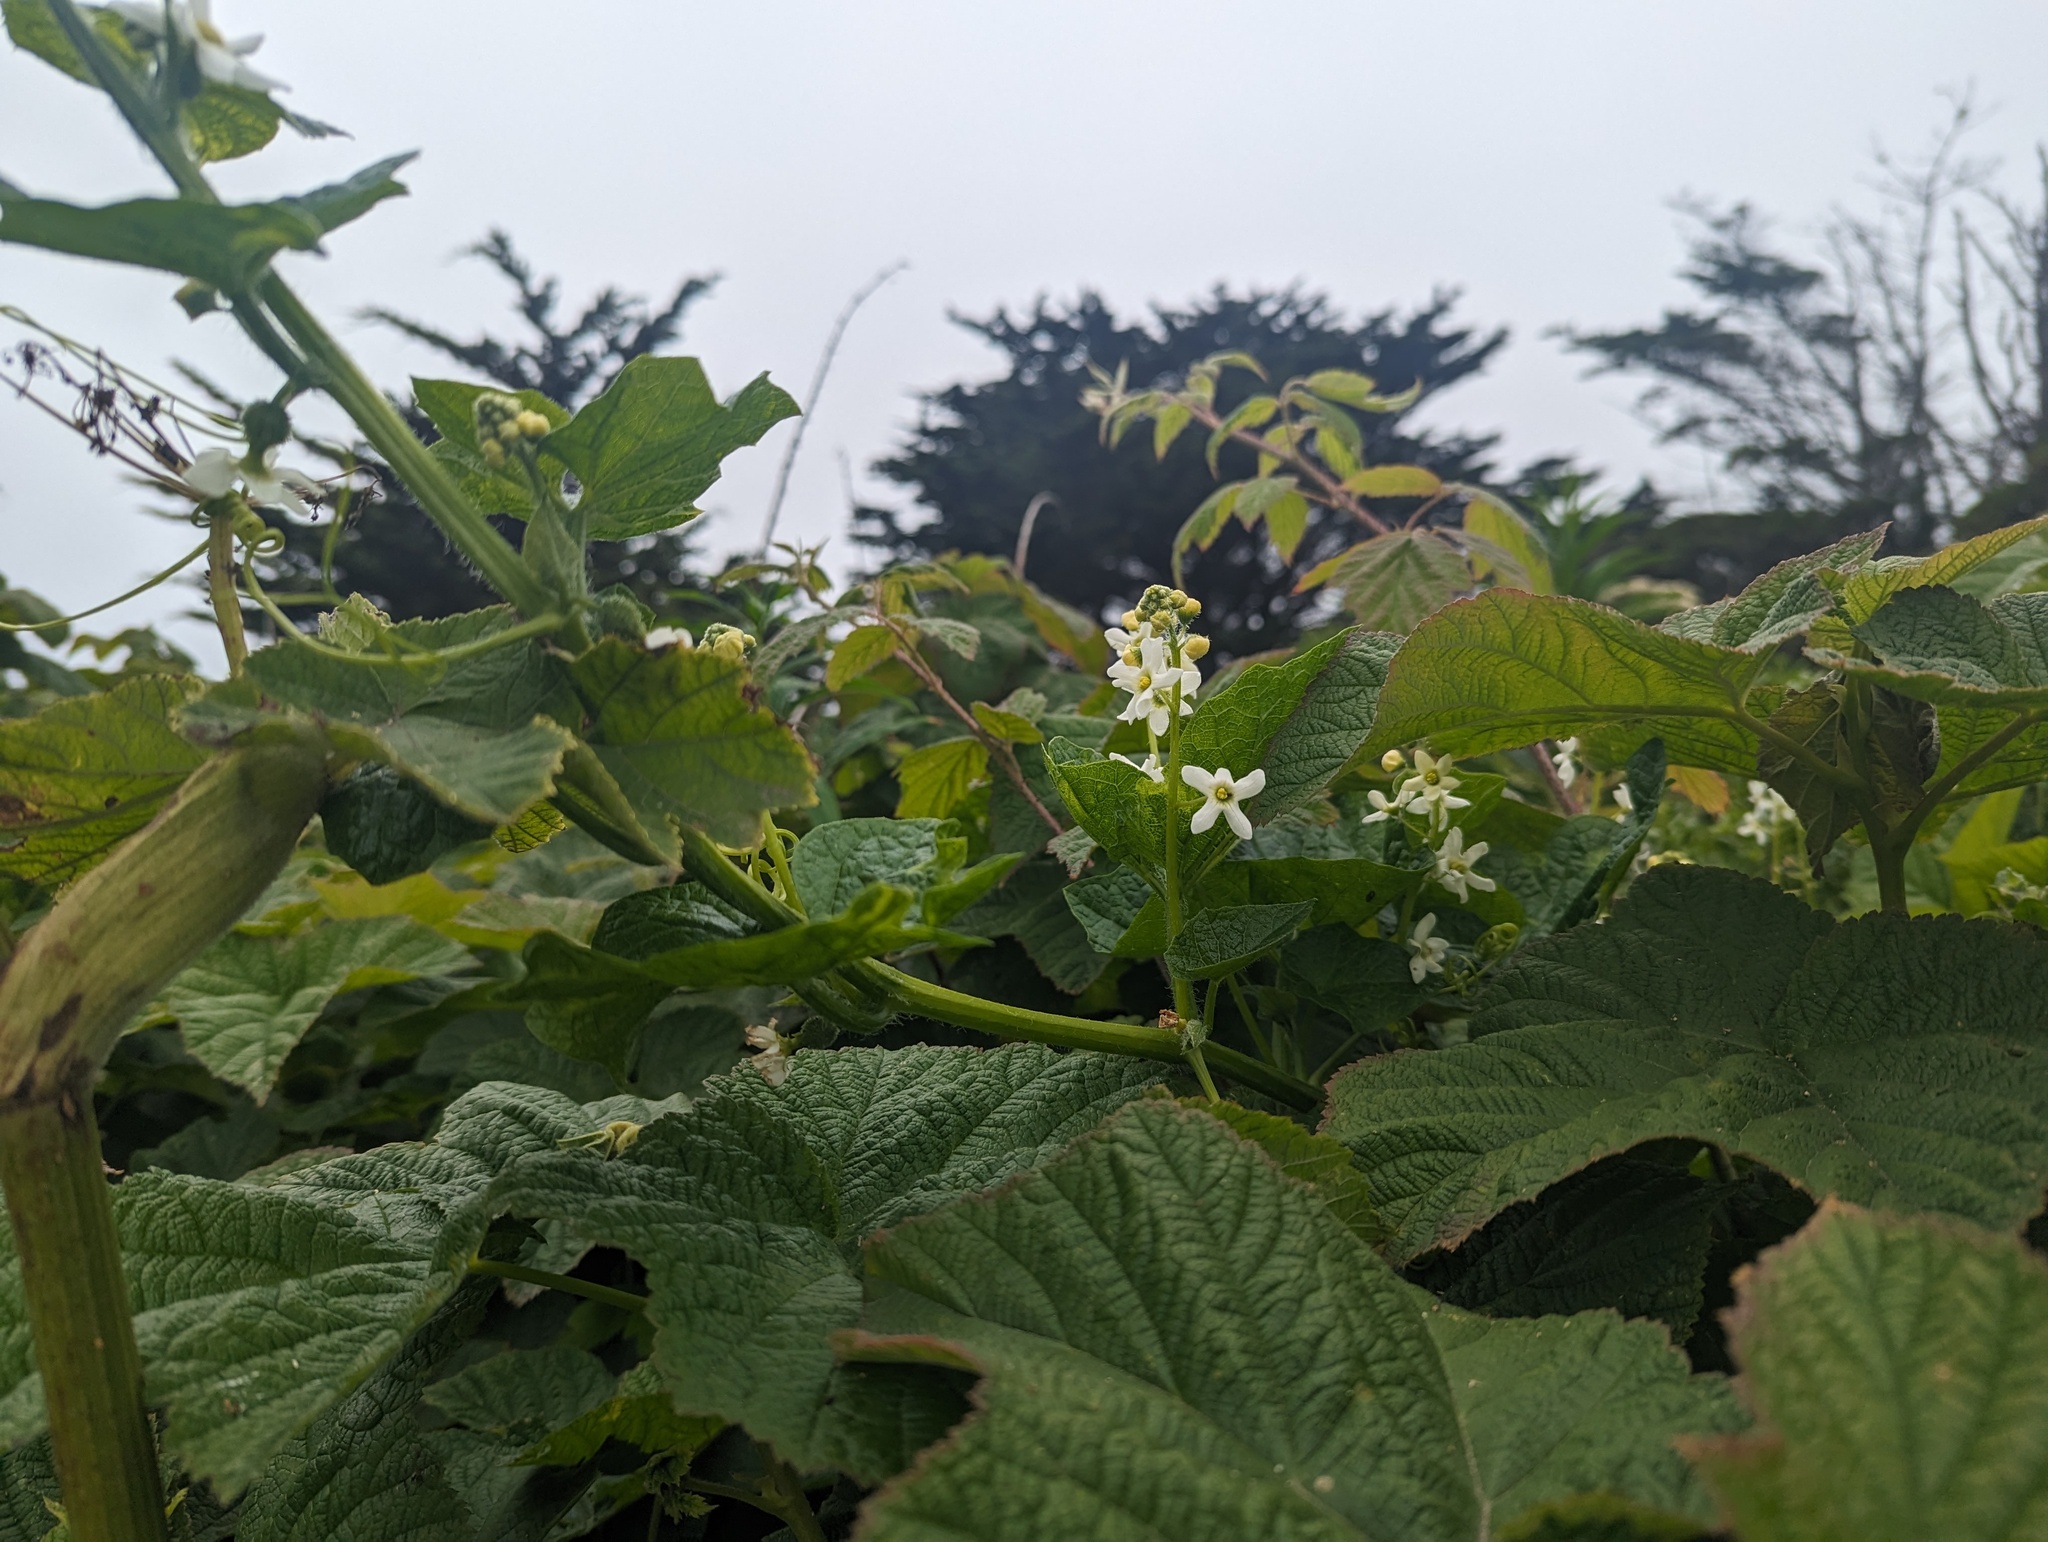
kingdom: Plantae
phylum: Tracheophyta
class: Magnoliopsida
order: Cucurbitales
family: Cucurbitaceae
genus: Marah
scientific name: Marah oregana
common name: Coastal manroot
